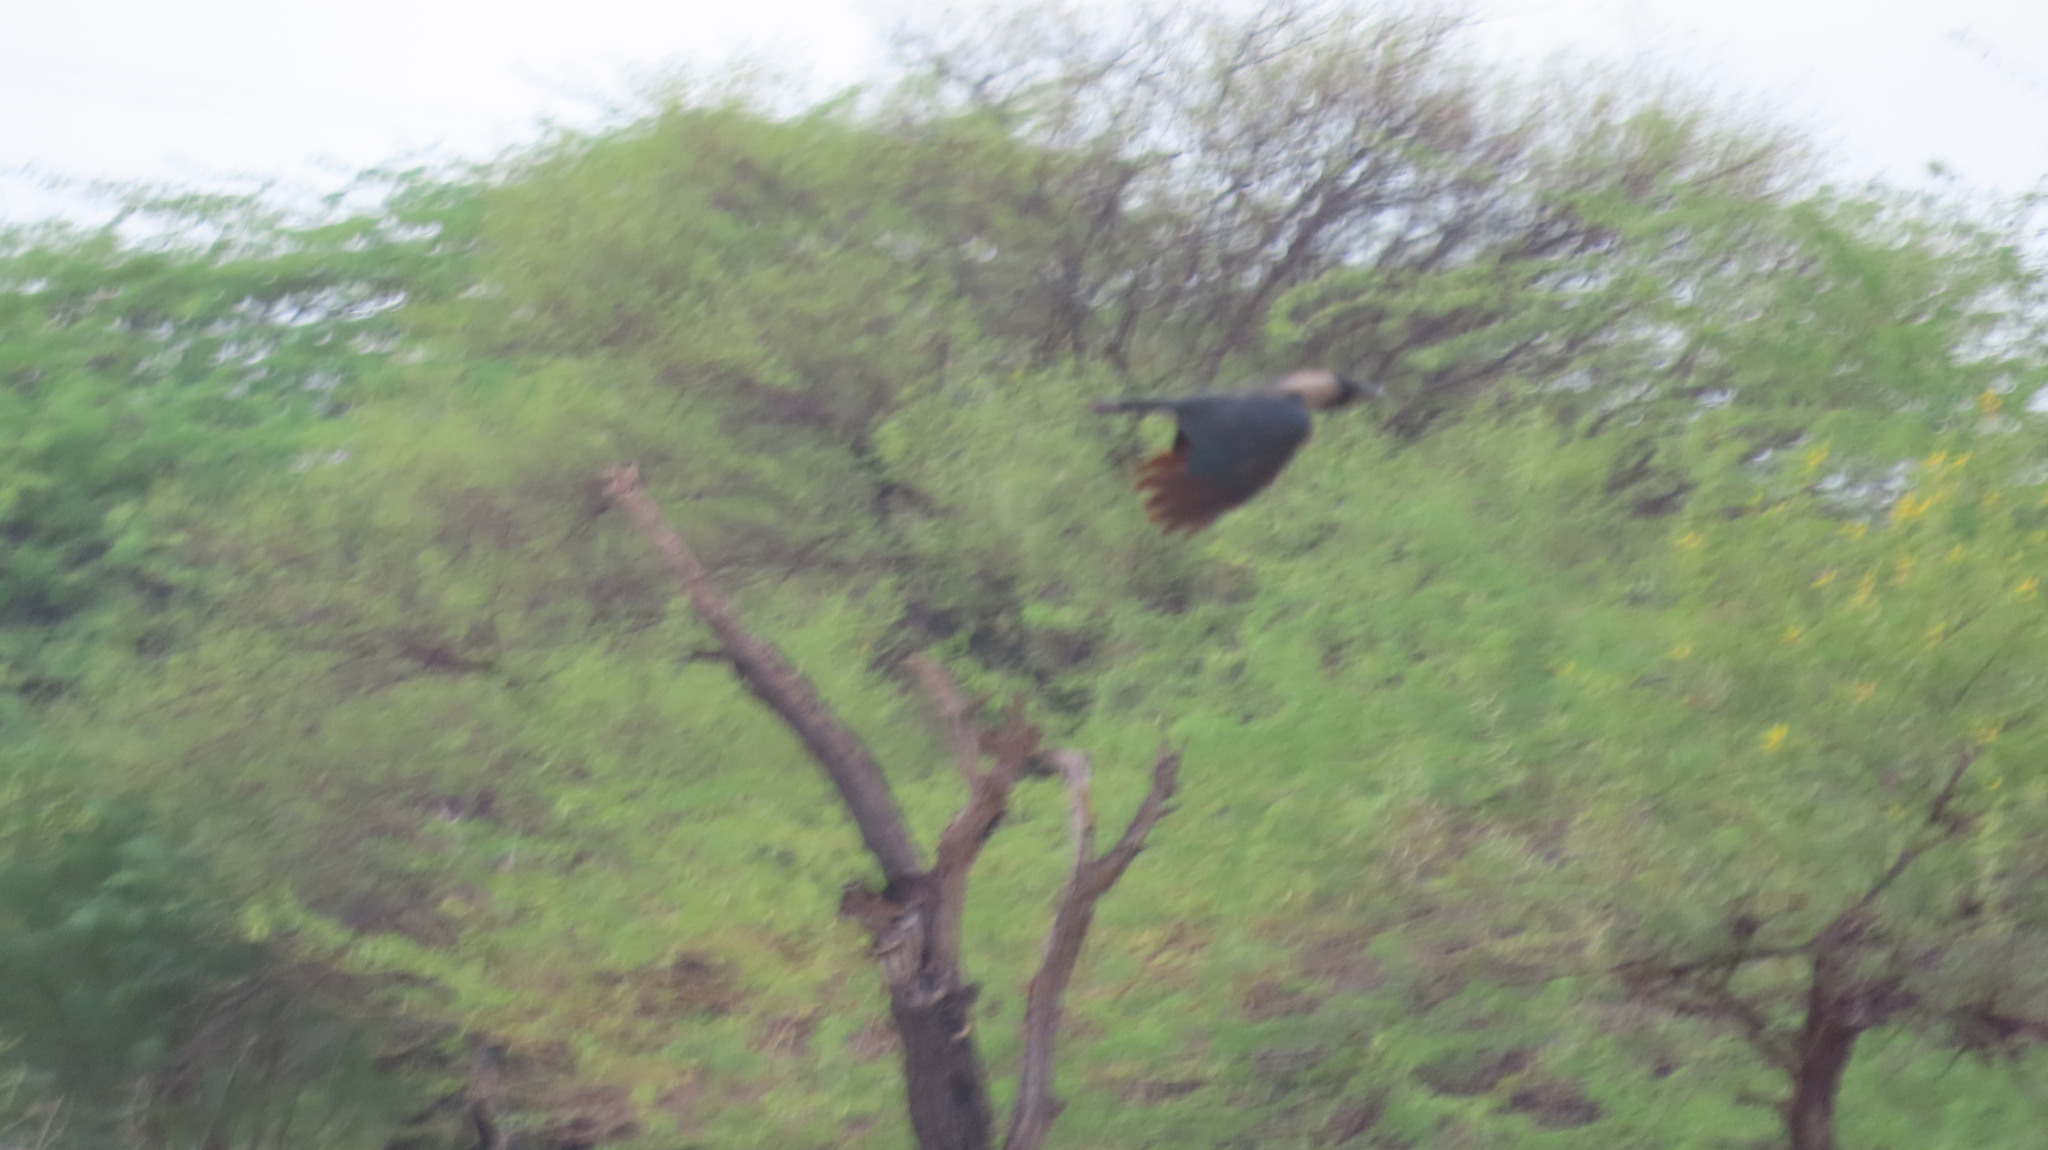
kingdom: Animalia
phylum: Chordata
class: Aves
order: Passeriformes
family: Corvidae
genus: Corvus
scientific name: Corvus splendens
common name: House crow
